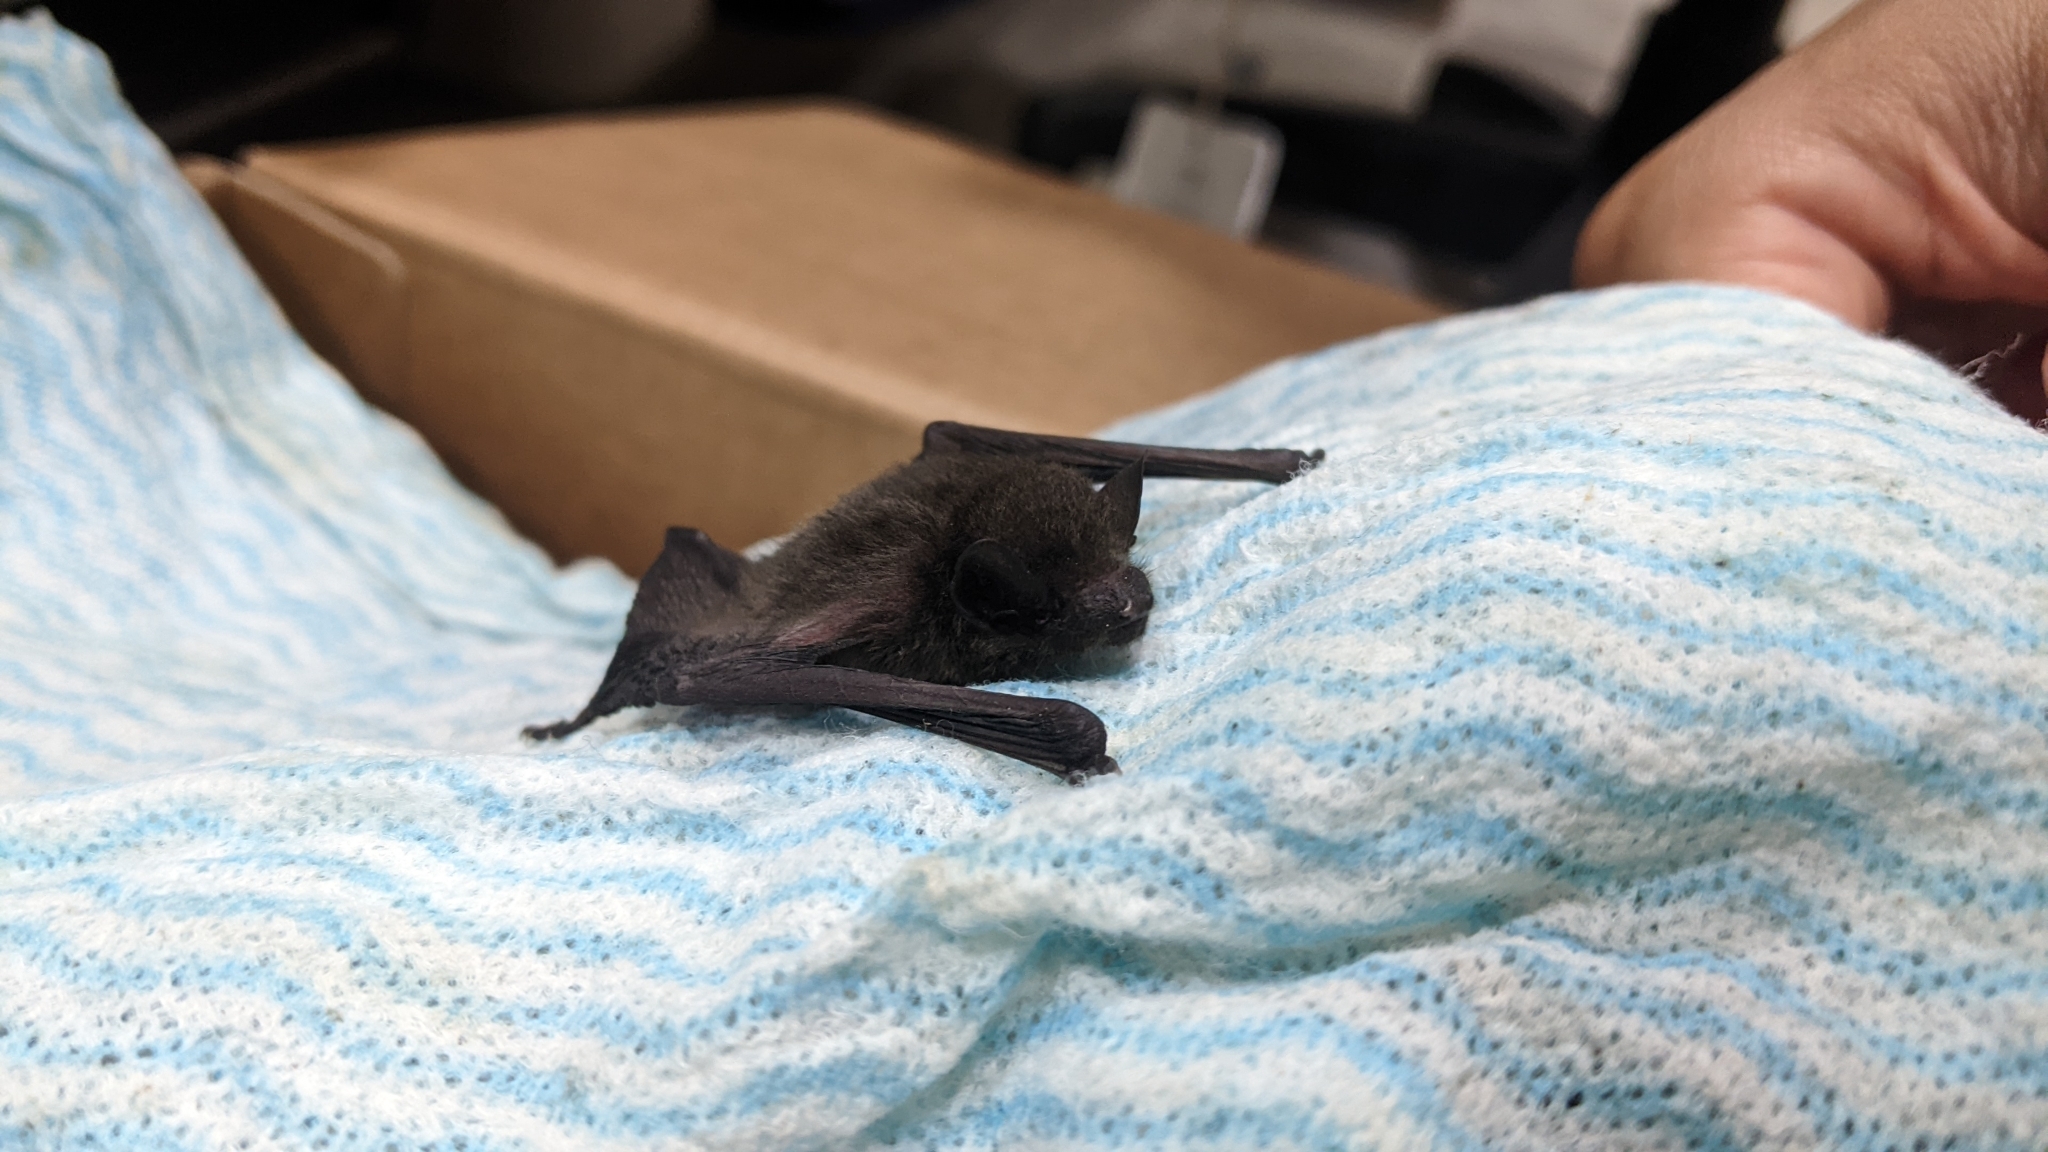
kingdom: Animalia
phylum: Chordata
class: Mammalia
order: Chiroptera
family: Vespertilionidae
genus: Pipistrellus
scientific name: Pipistrellus abramus
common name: Japanese pipistrelle
